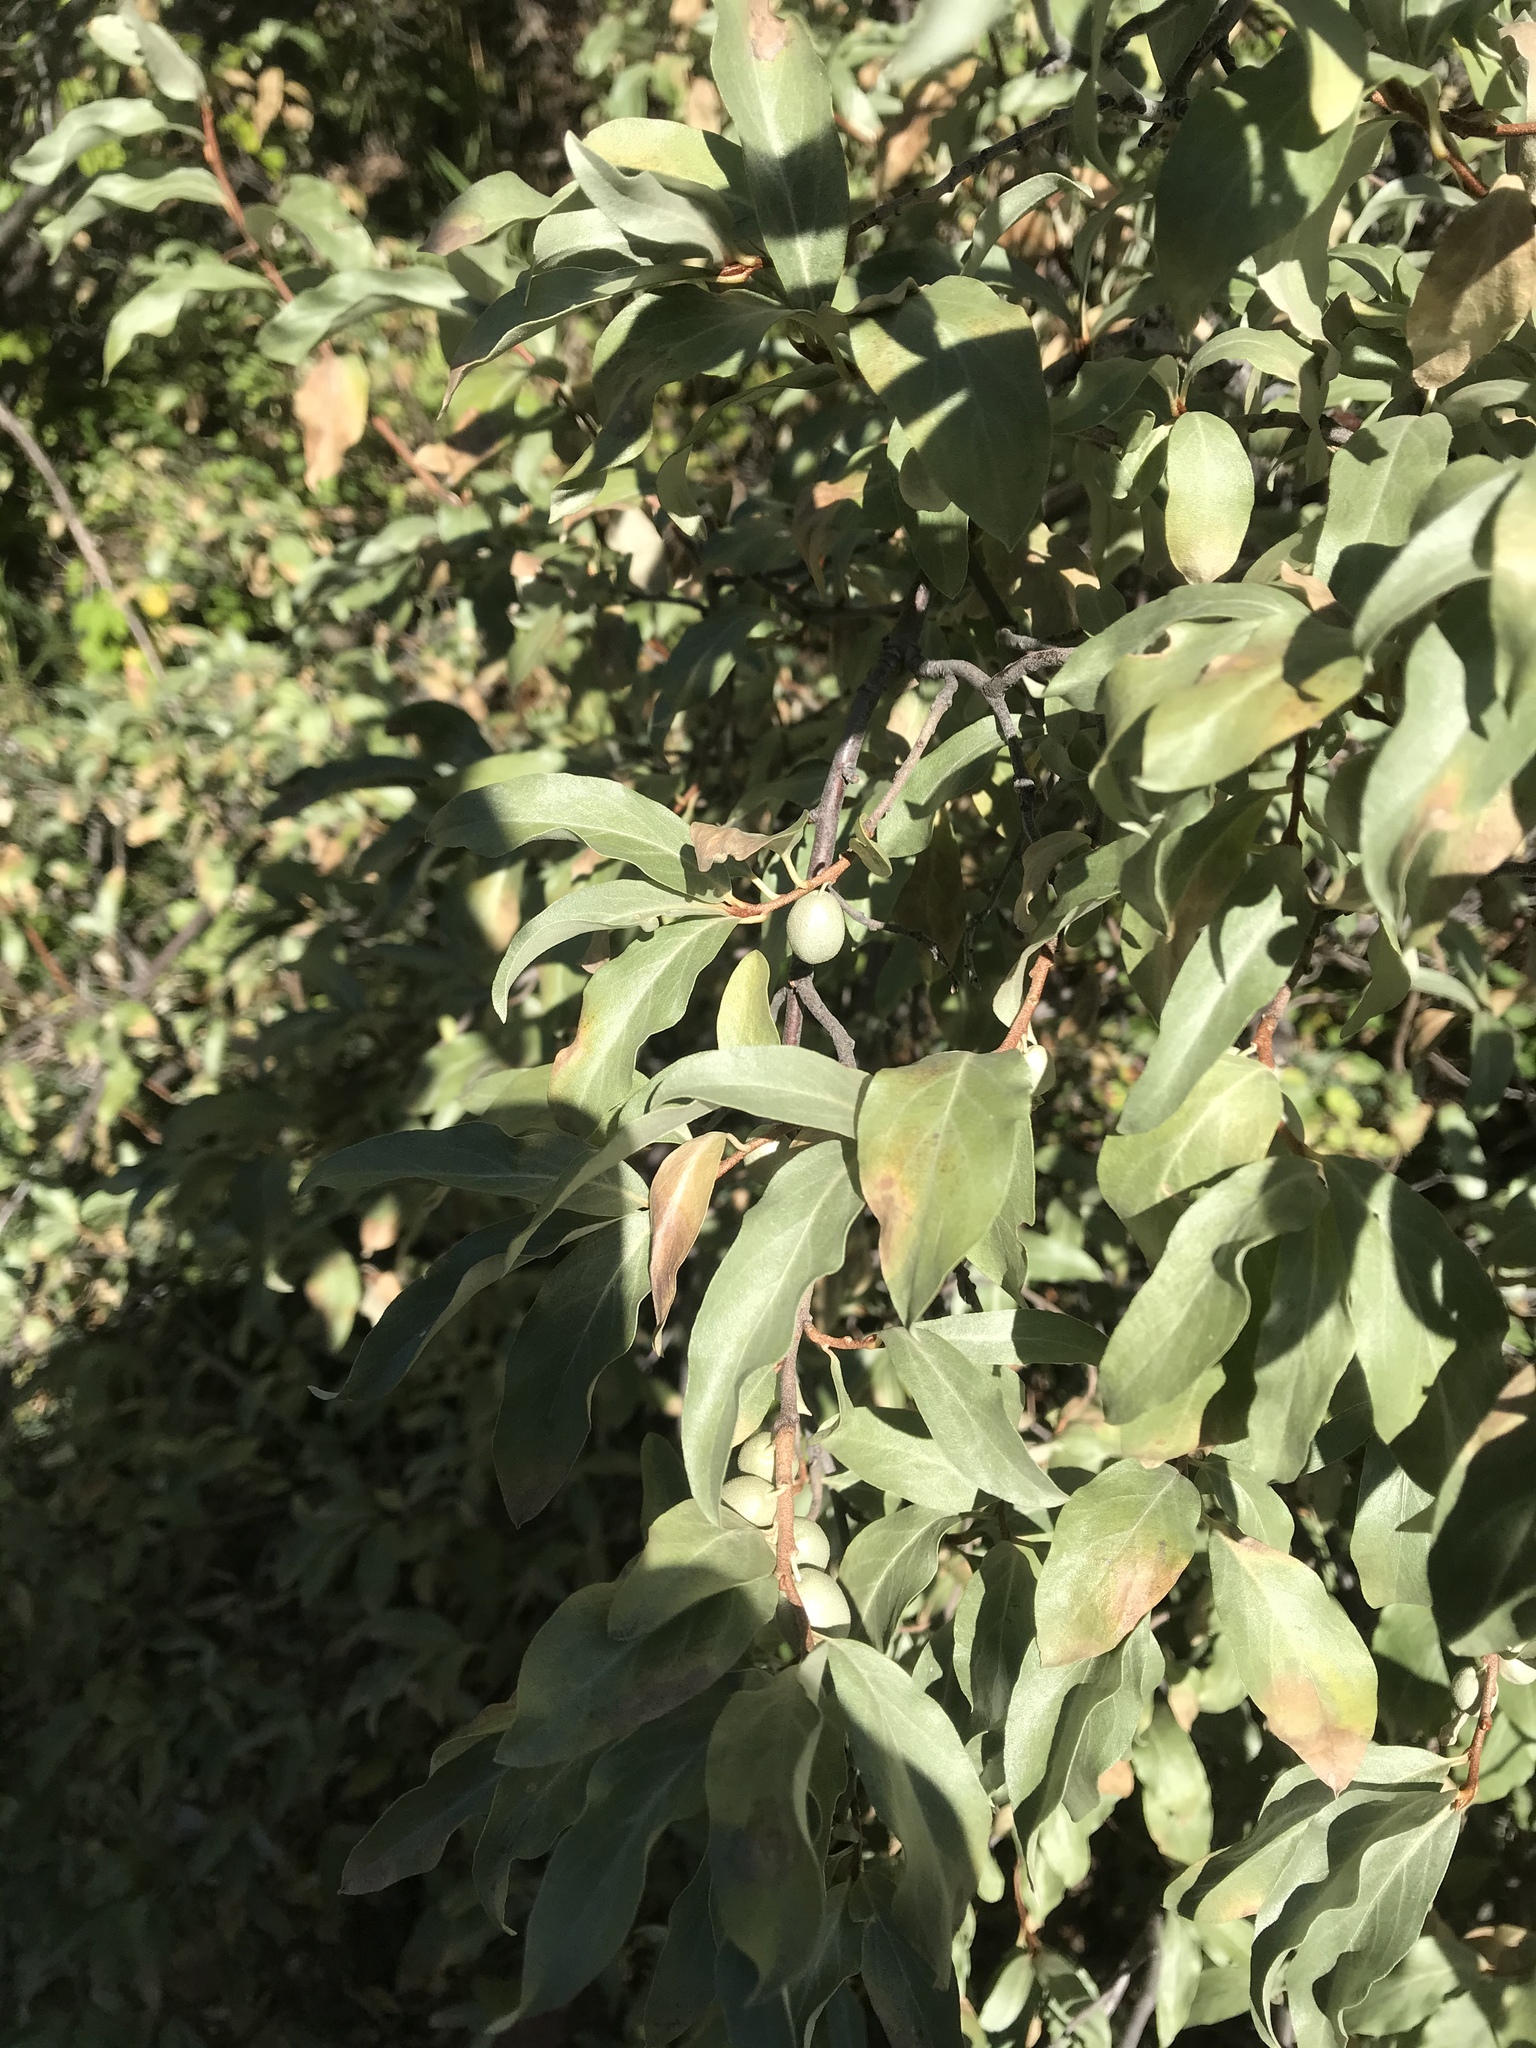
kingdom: Plantae
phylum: Tracheophyta
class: Magnoliopsida
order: Rosales
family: Elaeagnaceae
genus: Elaeagnus
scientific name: Elaeagnus commutata
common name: Silverberry
